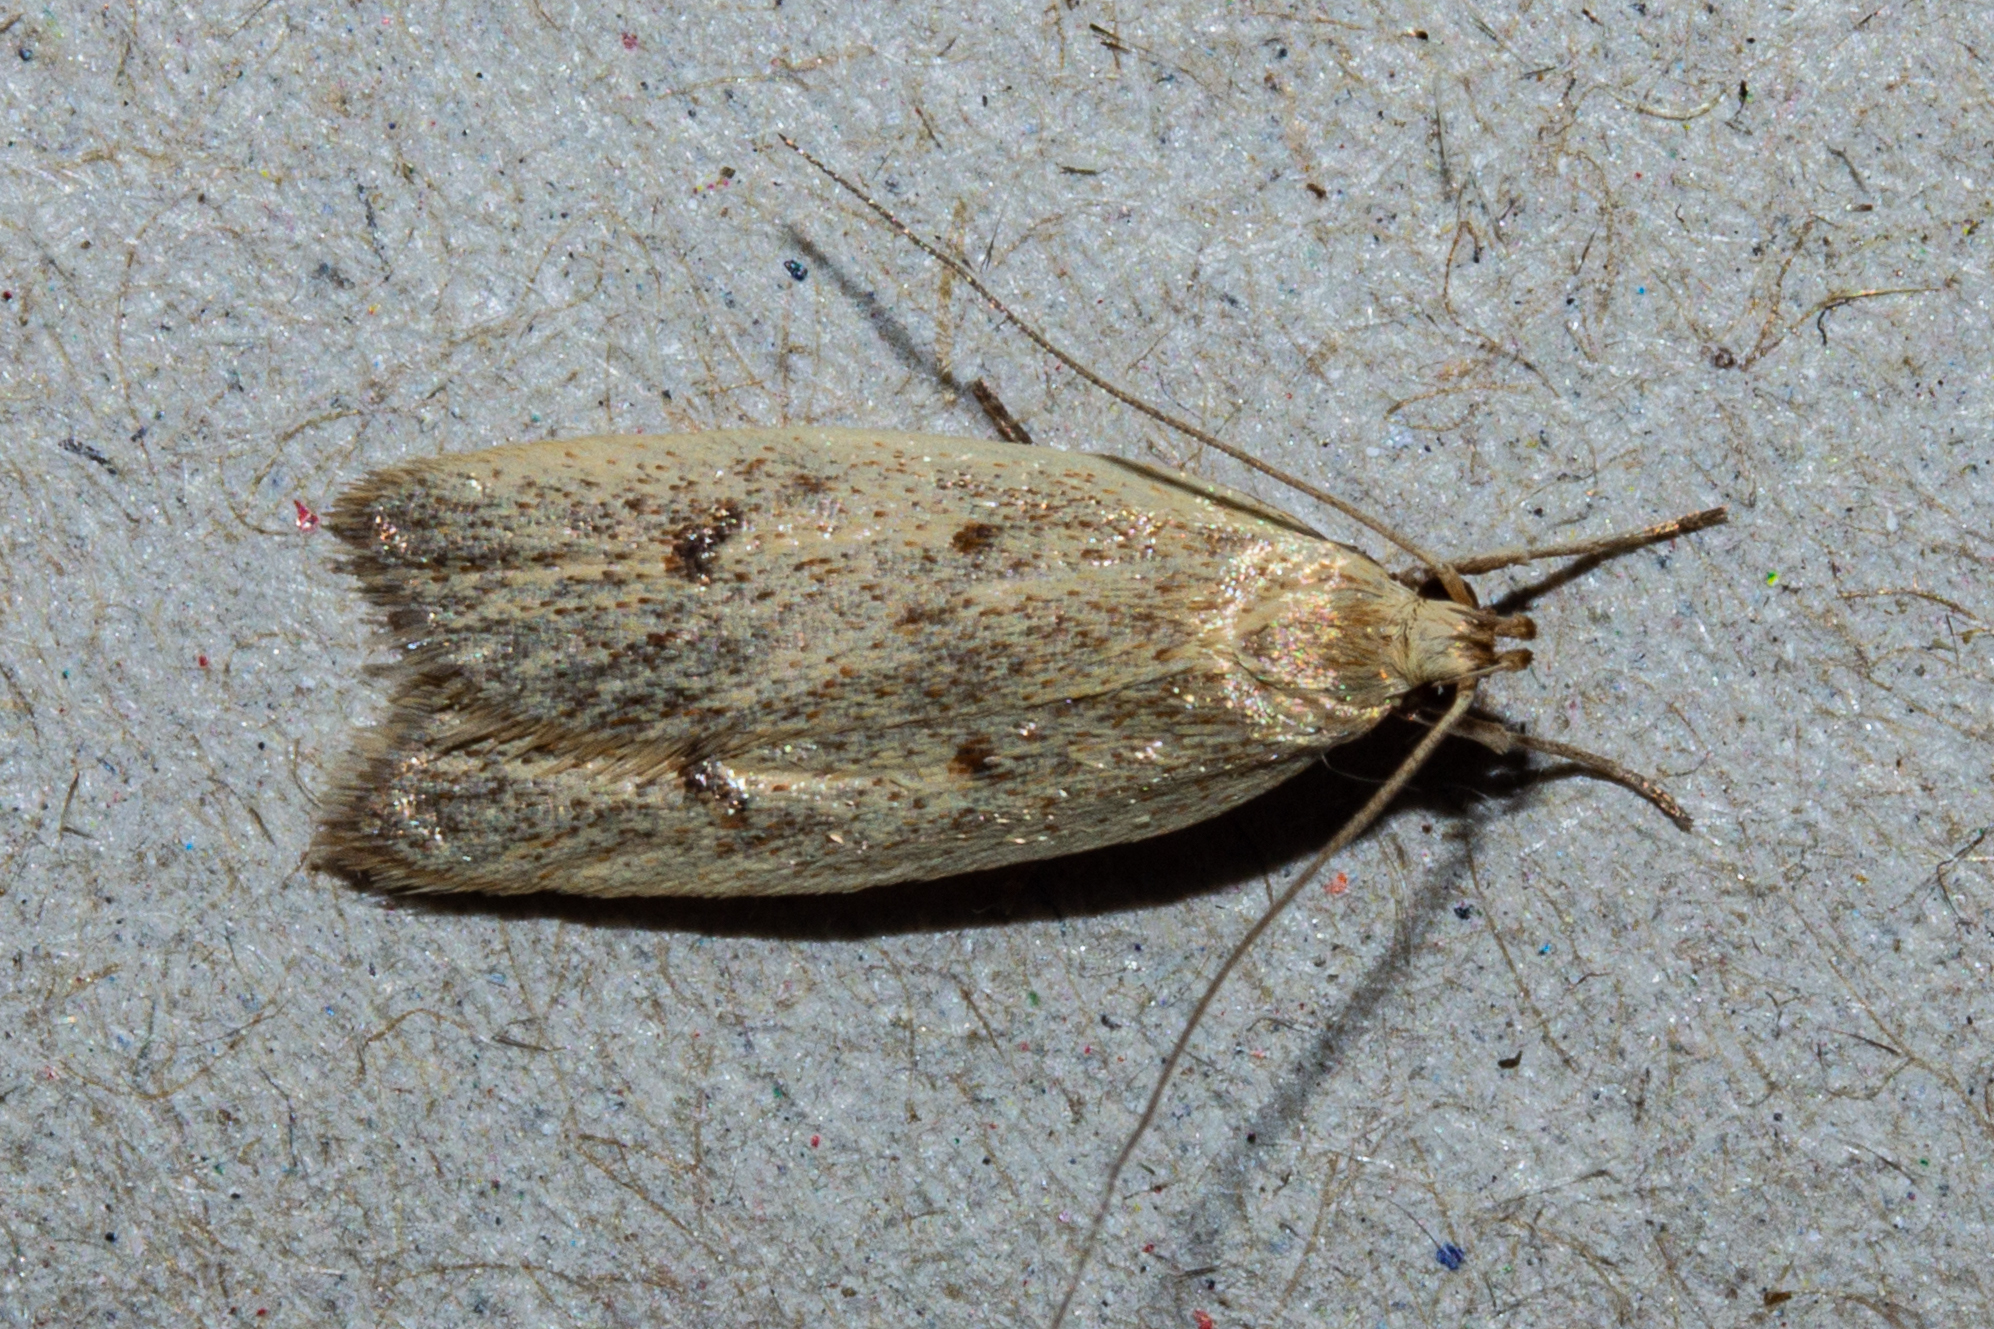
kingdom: Animalia
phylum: Arthropoda
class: Insecta
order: Lepidoptera
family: Oecophoridae
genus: Gymnobathra
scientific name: Gymnobathra sarcoxantha
